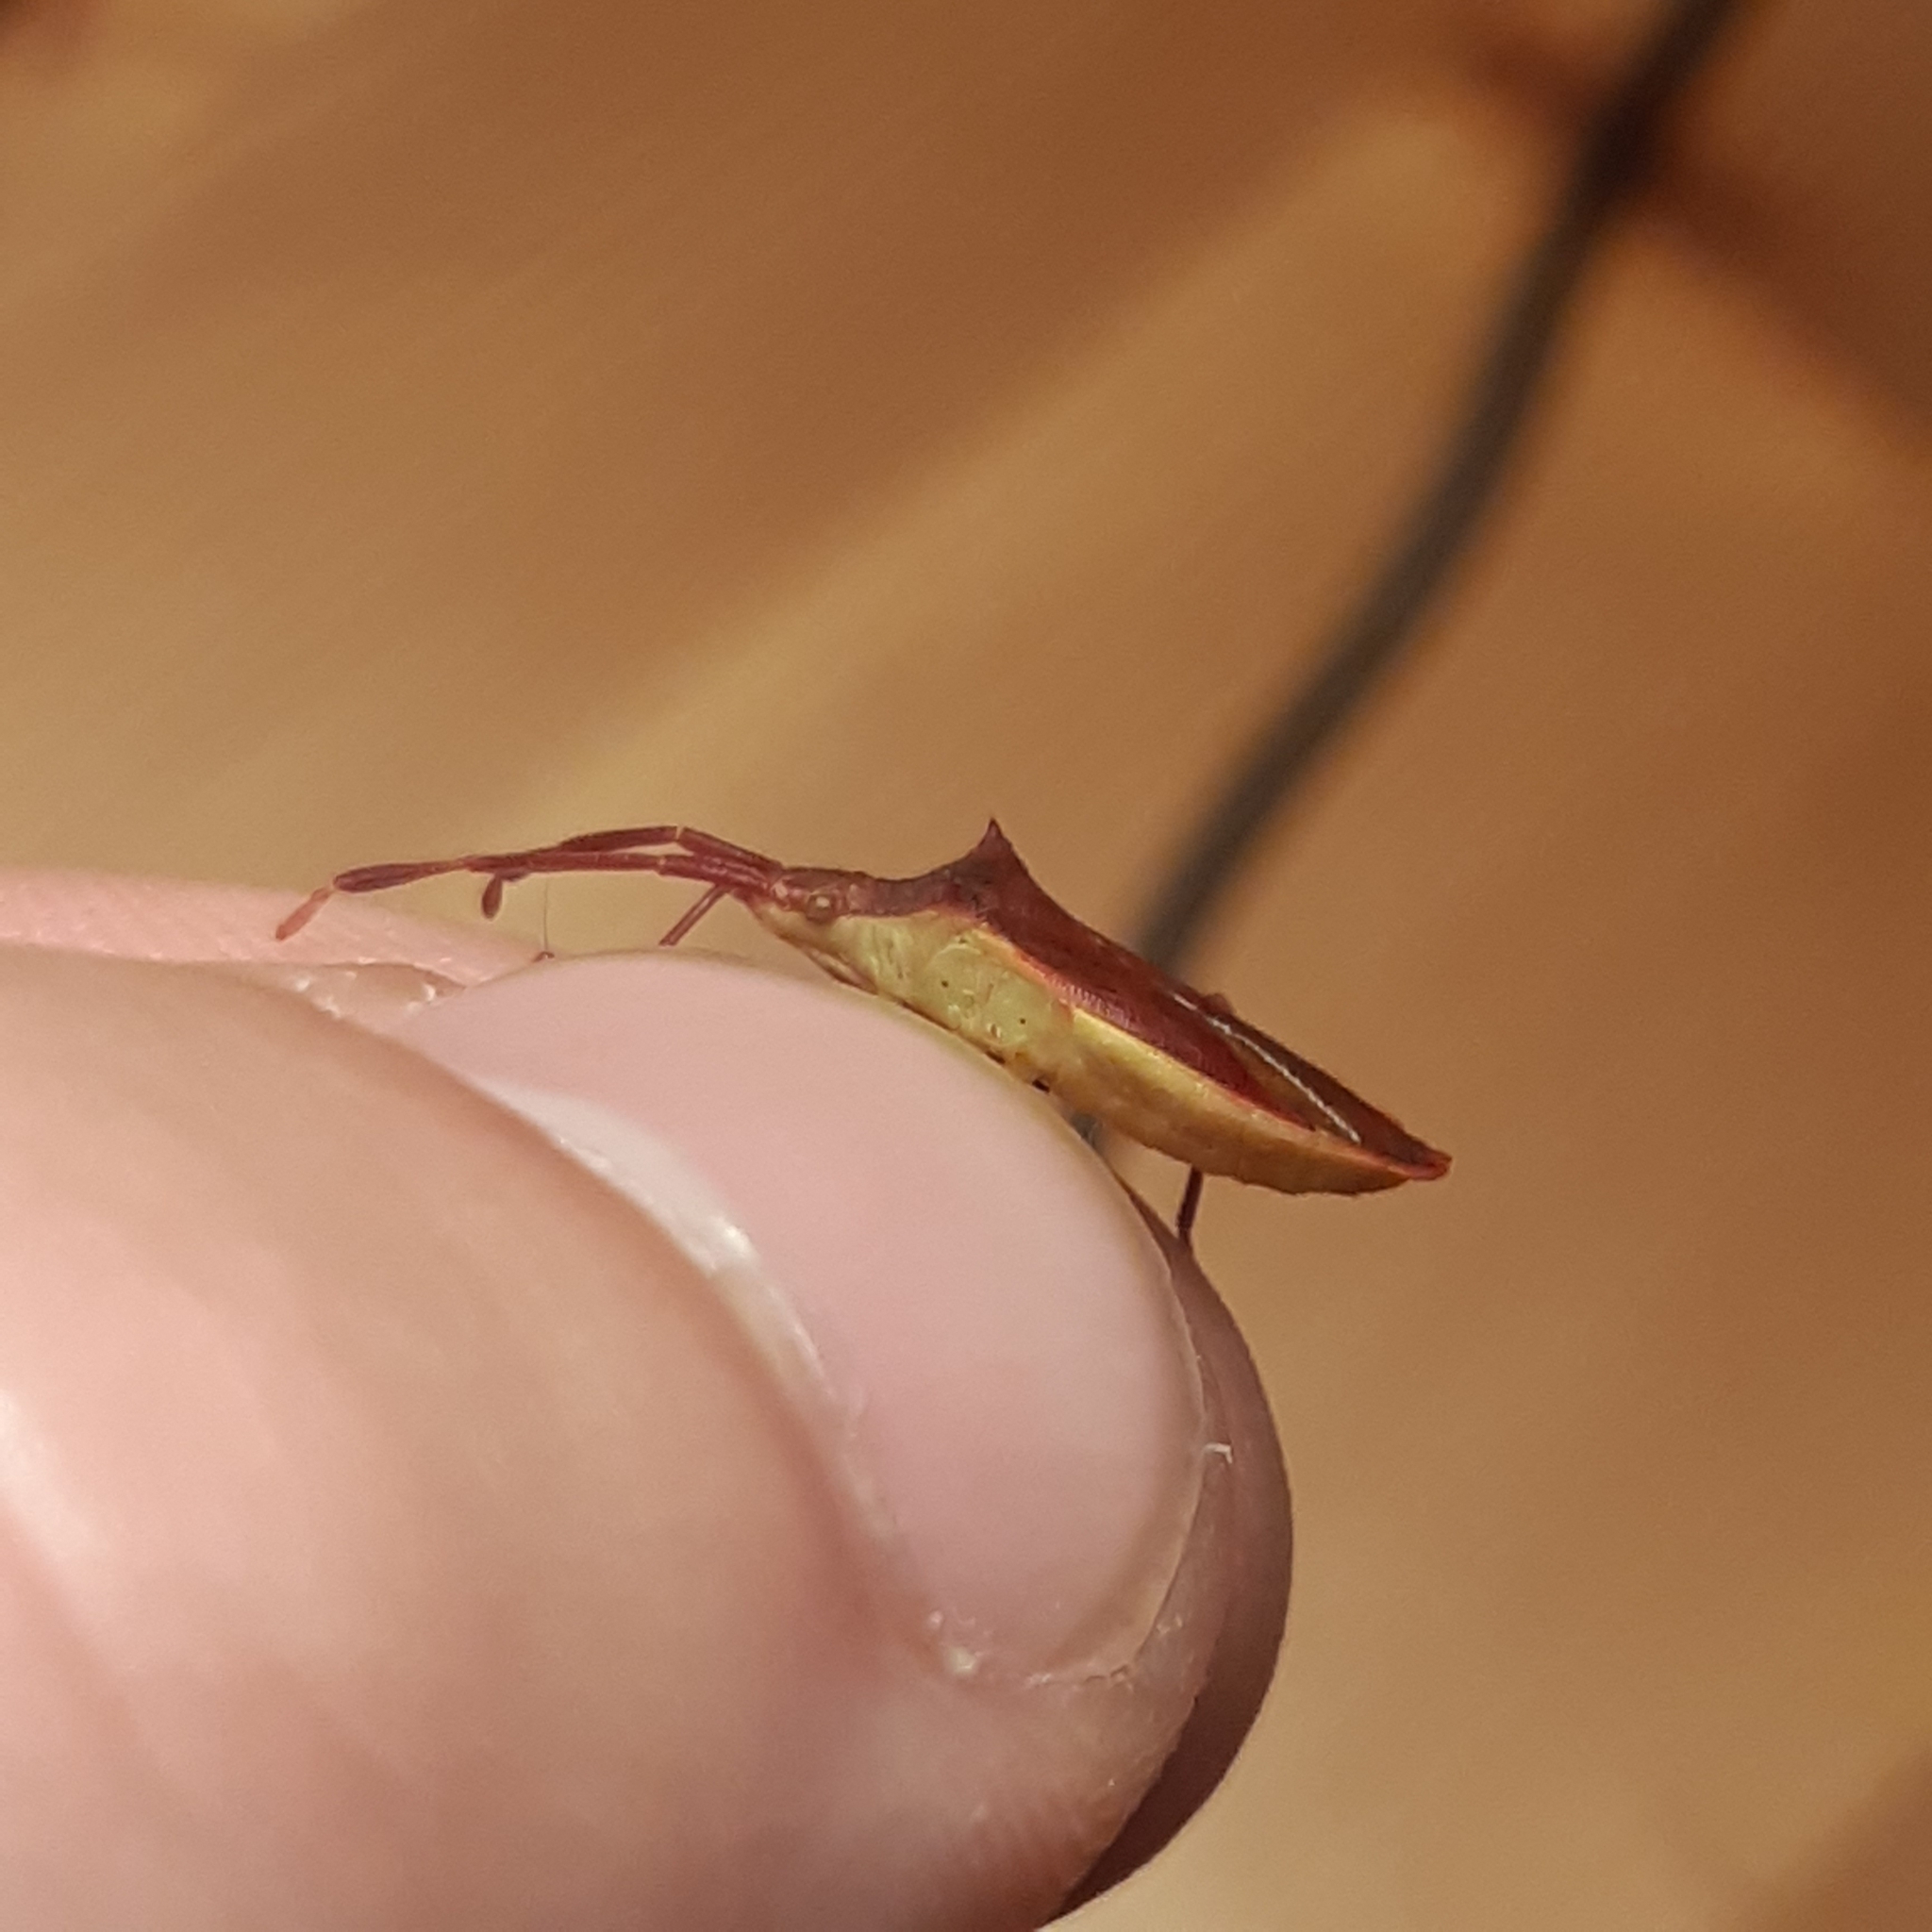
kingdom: Animalia
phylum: Arthropoda
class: Insecta
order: Hemiptera
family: Coreidae
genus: Gonocerus
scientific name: Gonocerus insidiator
